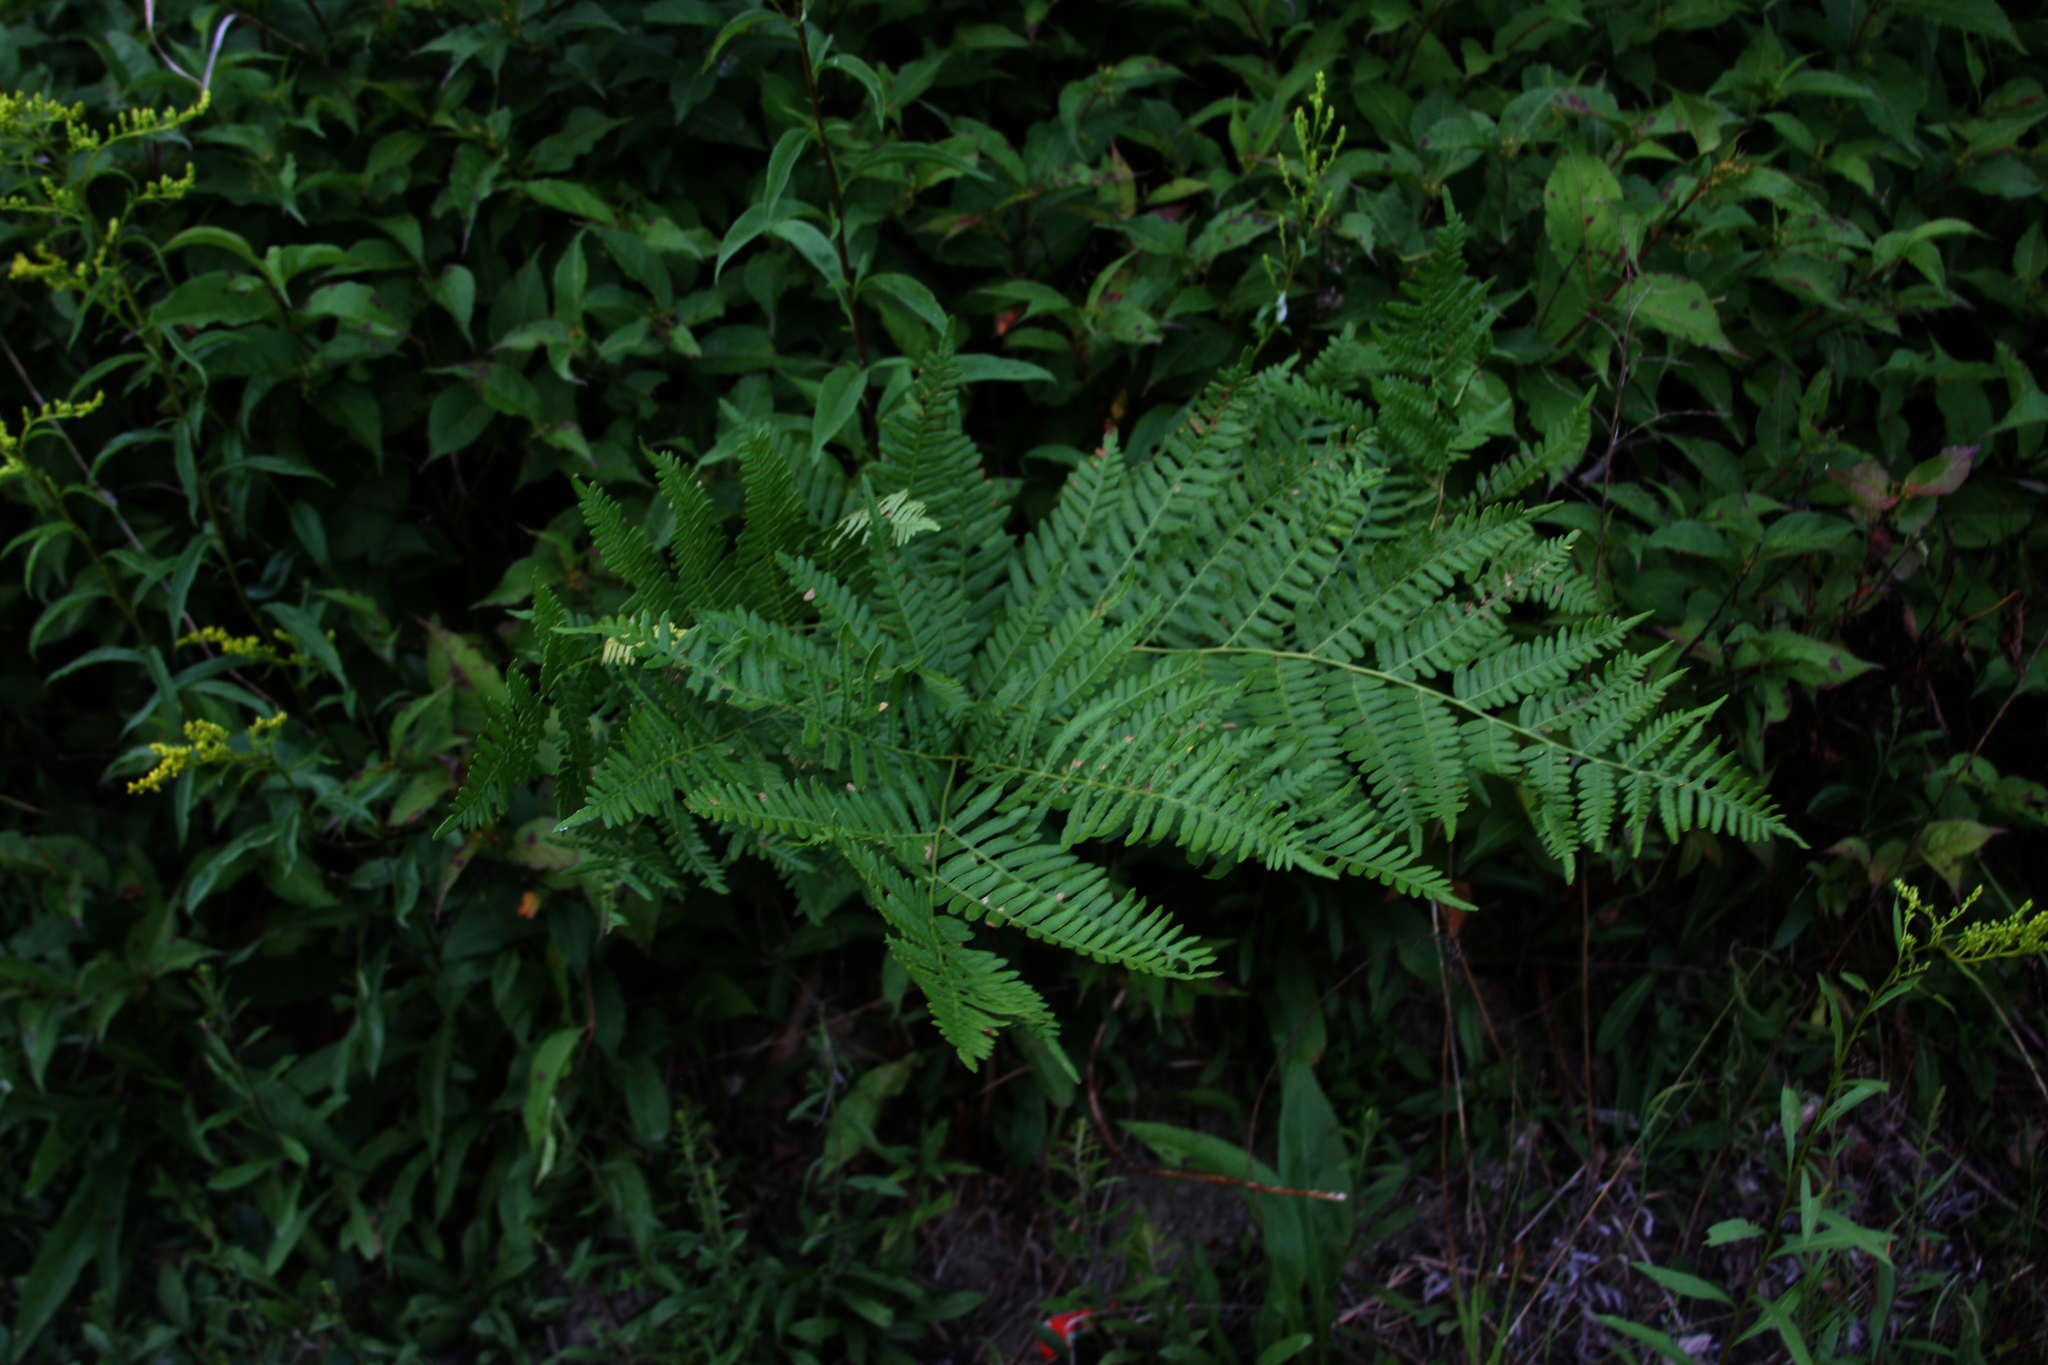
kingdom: Plantae
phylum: Tracheophyta
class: Polypodiopsida
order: Polypodiales
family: Dennstaedtiaceae
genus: Pteridium
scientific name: Pteridium aquilinum
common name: Bracken
